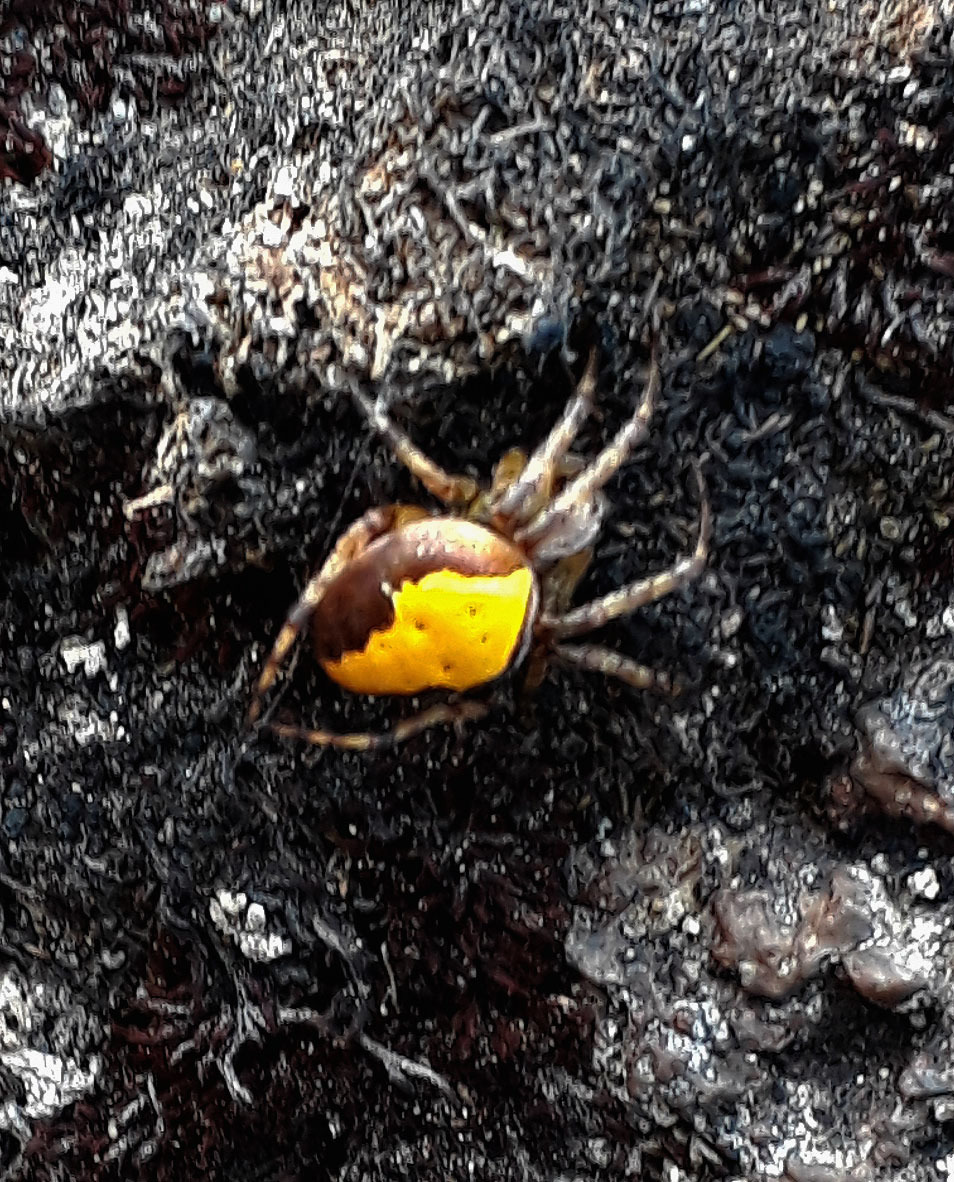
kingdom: Animalia
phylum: Arthropoda
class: Arachnida
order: Araneae
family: Araneidae
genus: Colaranea
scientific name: Colaranea viriditas
